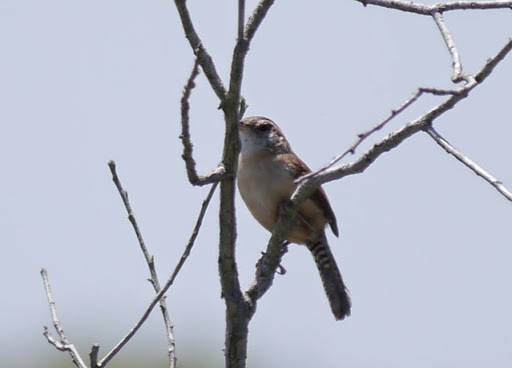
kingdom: Animalia
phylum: Chordata
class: Aves
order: Passeriformes
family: Troglodytidae
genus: Thryothorus
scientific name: Thryothorus ludovicianus
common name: Carolina wren
